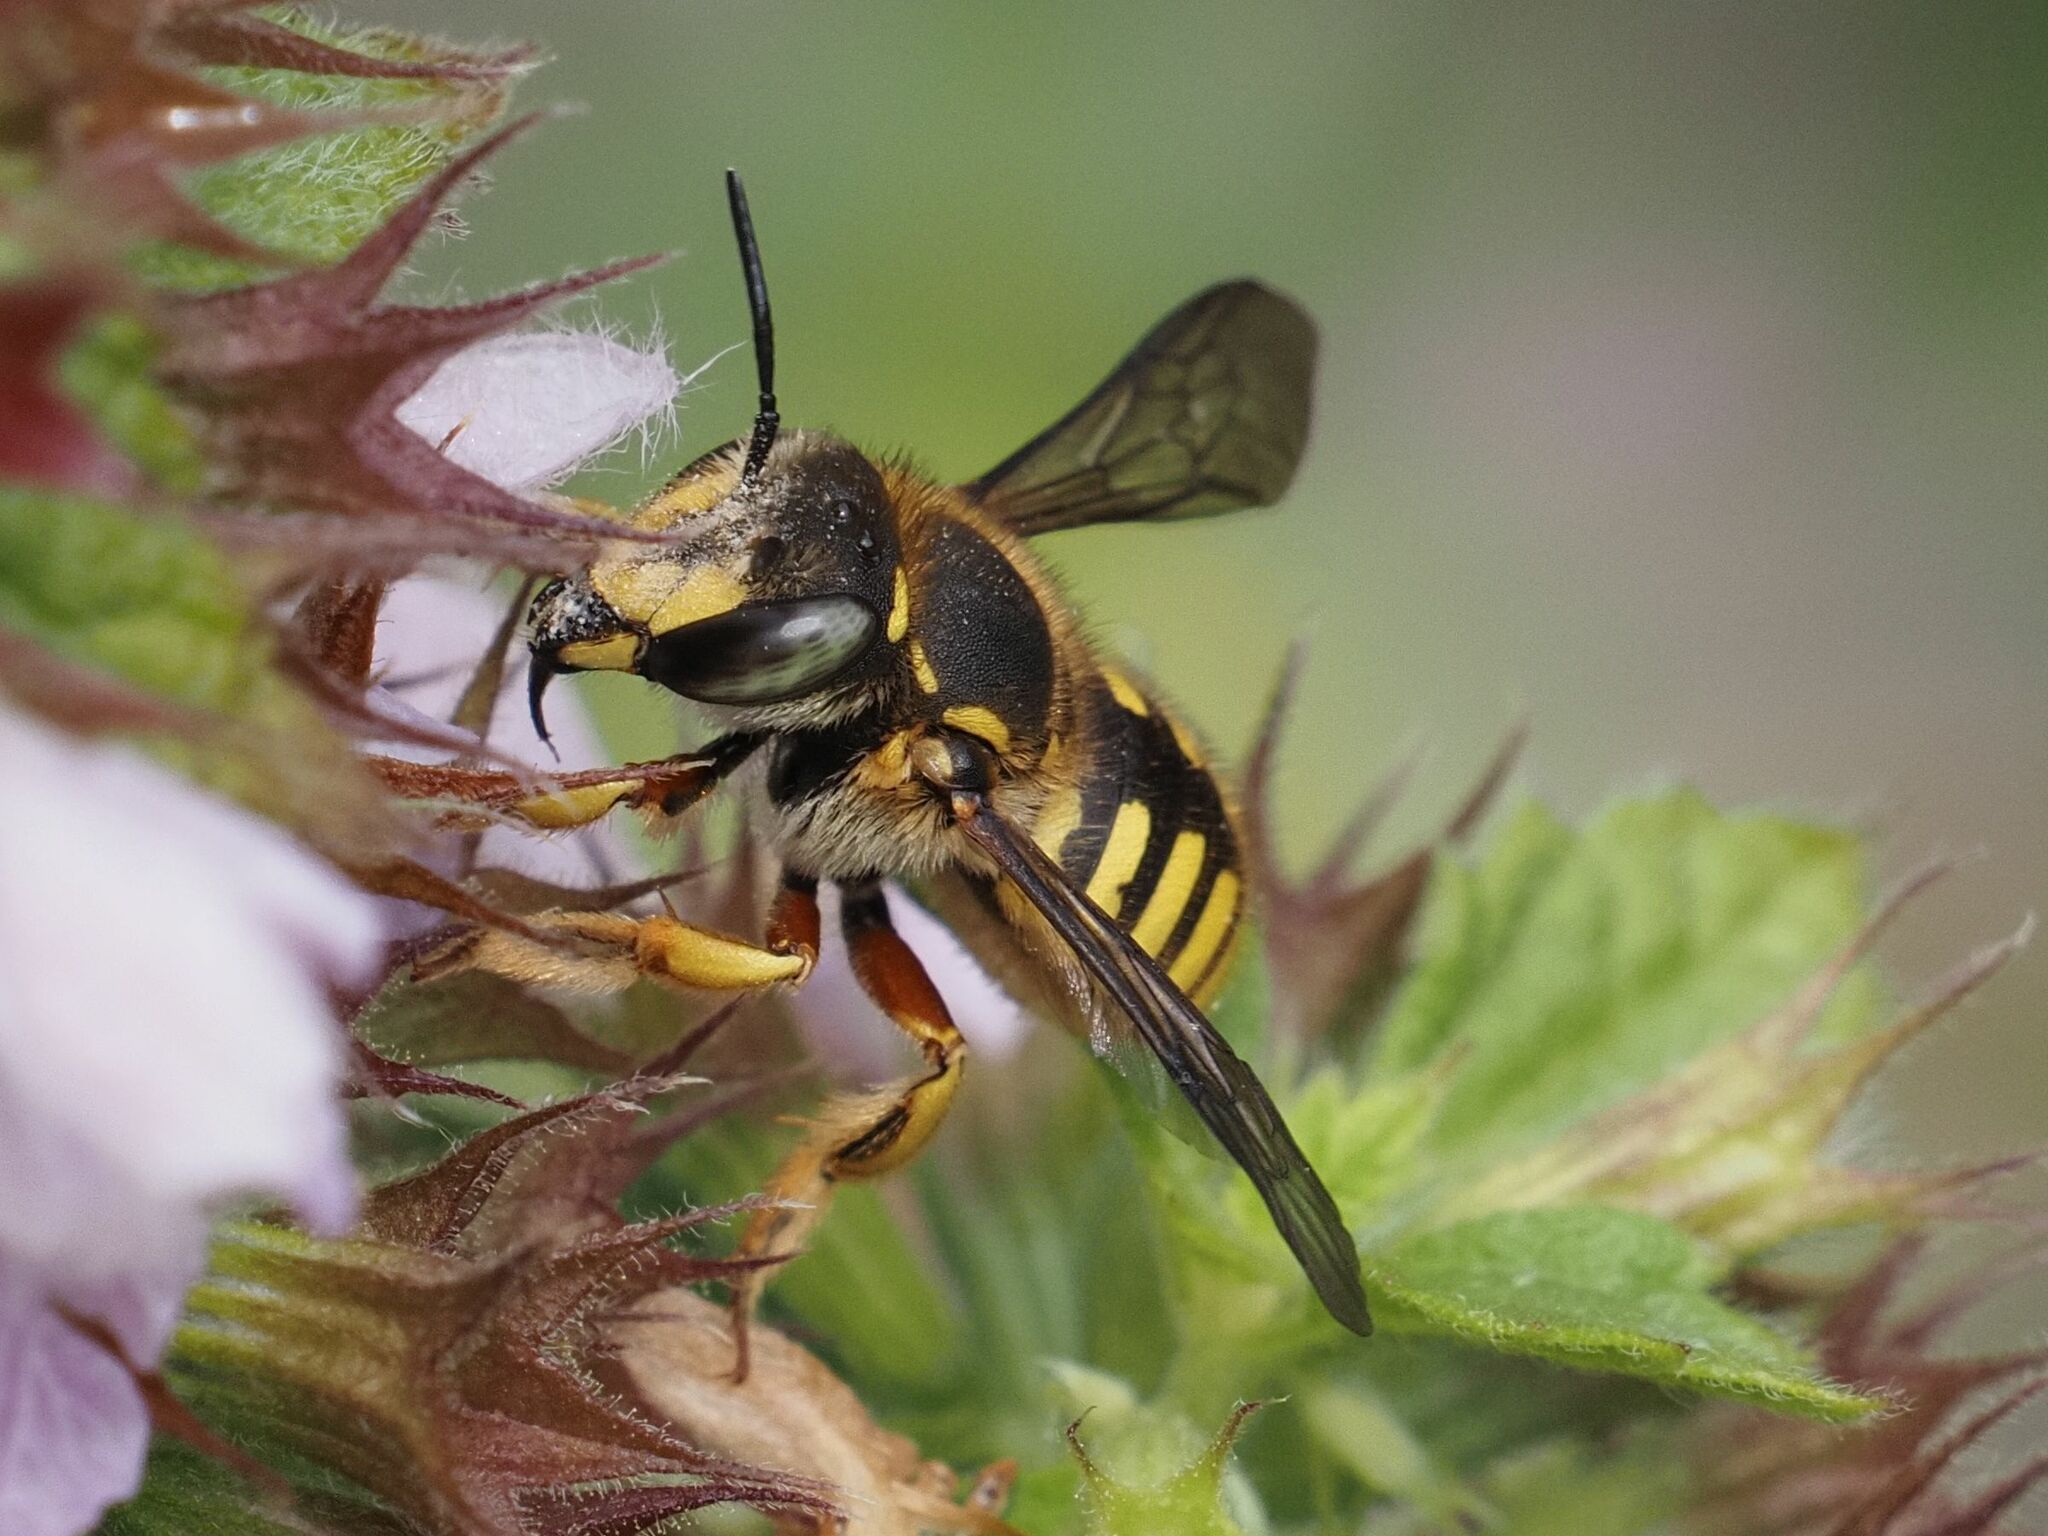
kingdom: Animalia
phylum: Arthropoda
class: Insecta
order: Hymenoptera
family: Megachilidae
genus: Anthidium
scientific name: Anthidium manicatum
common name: Wool carder bee
